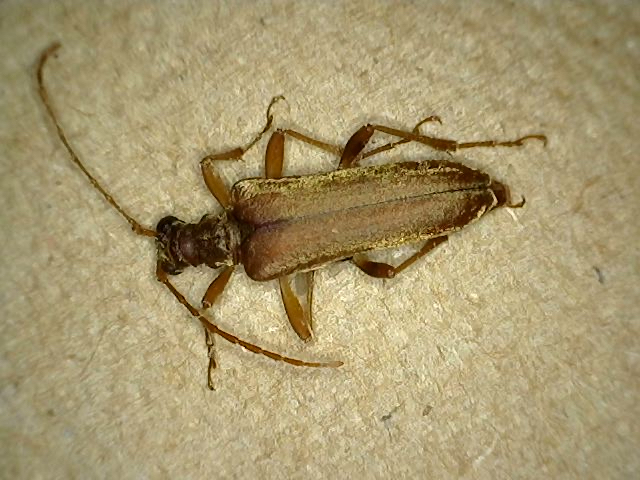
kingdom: Animalia
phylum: Arthropoda
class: Insecta
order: Coleoptera
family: Cerambycidae
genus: Stenocorus
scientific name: Stenocorus cinnamopterus
